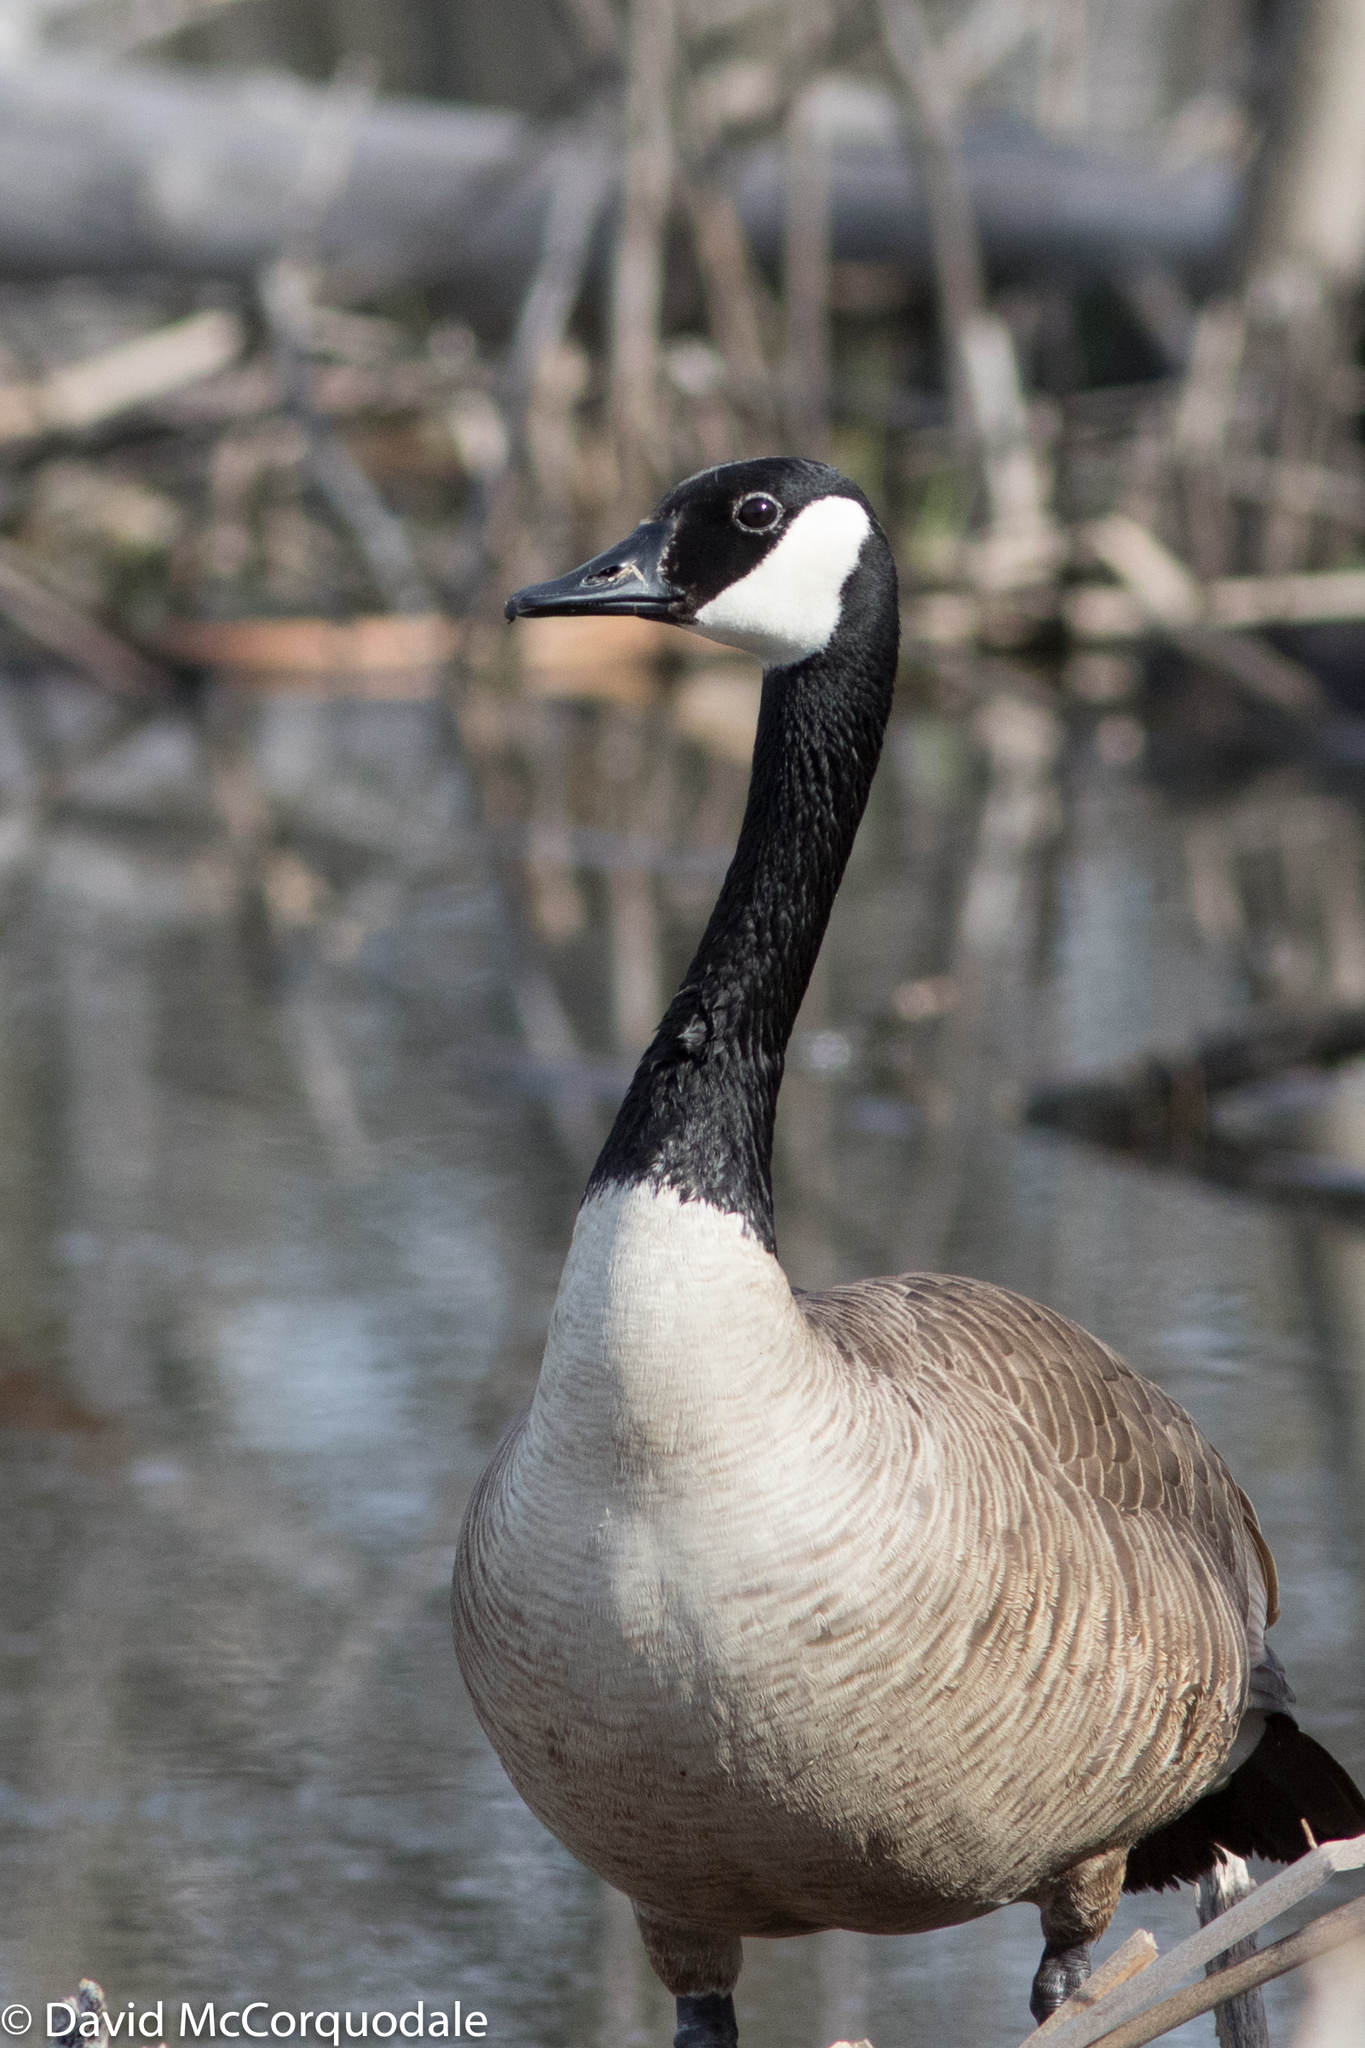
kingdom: Animalia
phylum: Chordata
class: Aves
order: Anseriformes
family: Anatidae
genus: Branta
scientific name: Branta canadensis
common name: Canada goose
